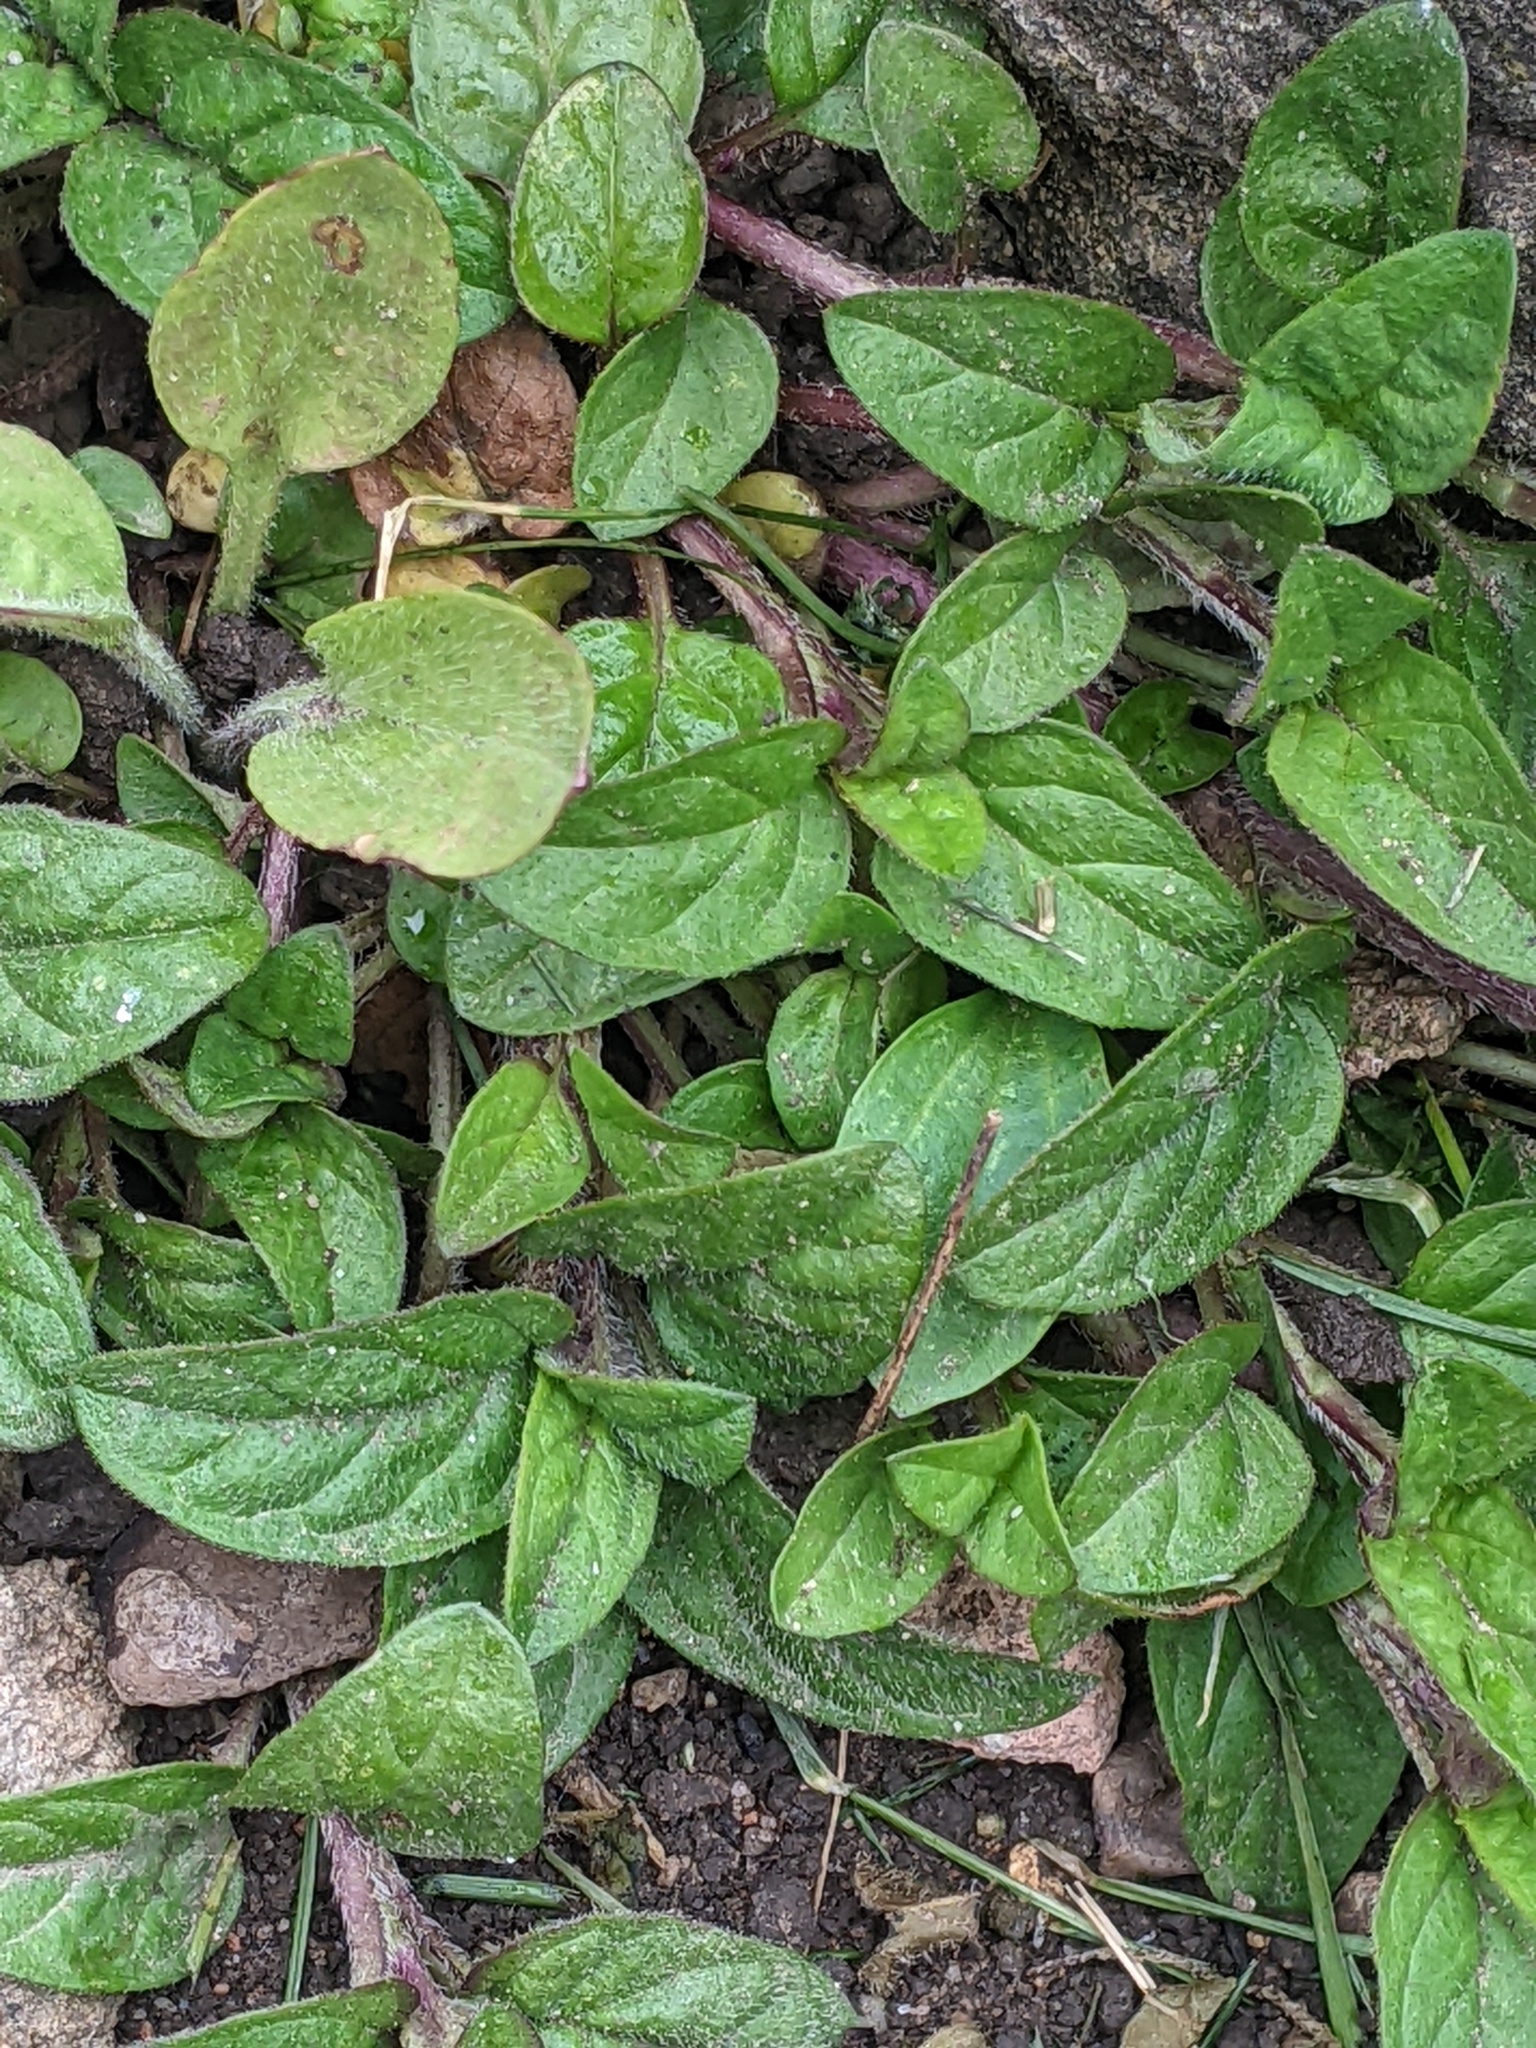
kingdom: Plantae
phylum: Tracheophyta
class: Magnoliopsida
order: Lamiales
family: Lamiaceae
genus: Prunella
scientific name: Prunella vulgaris
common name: Heal-all
